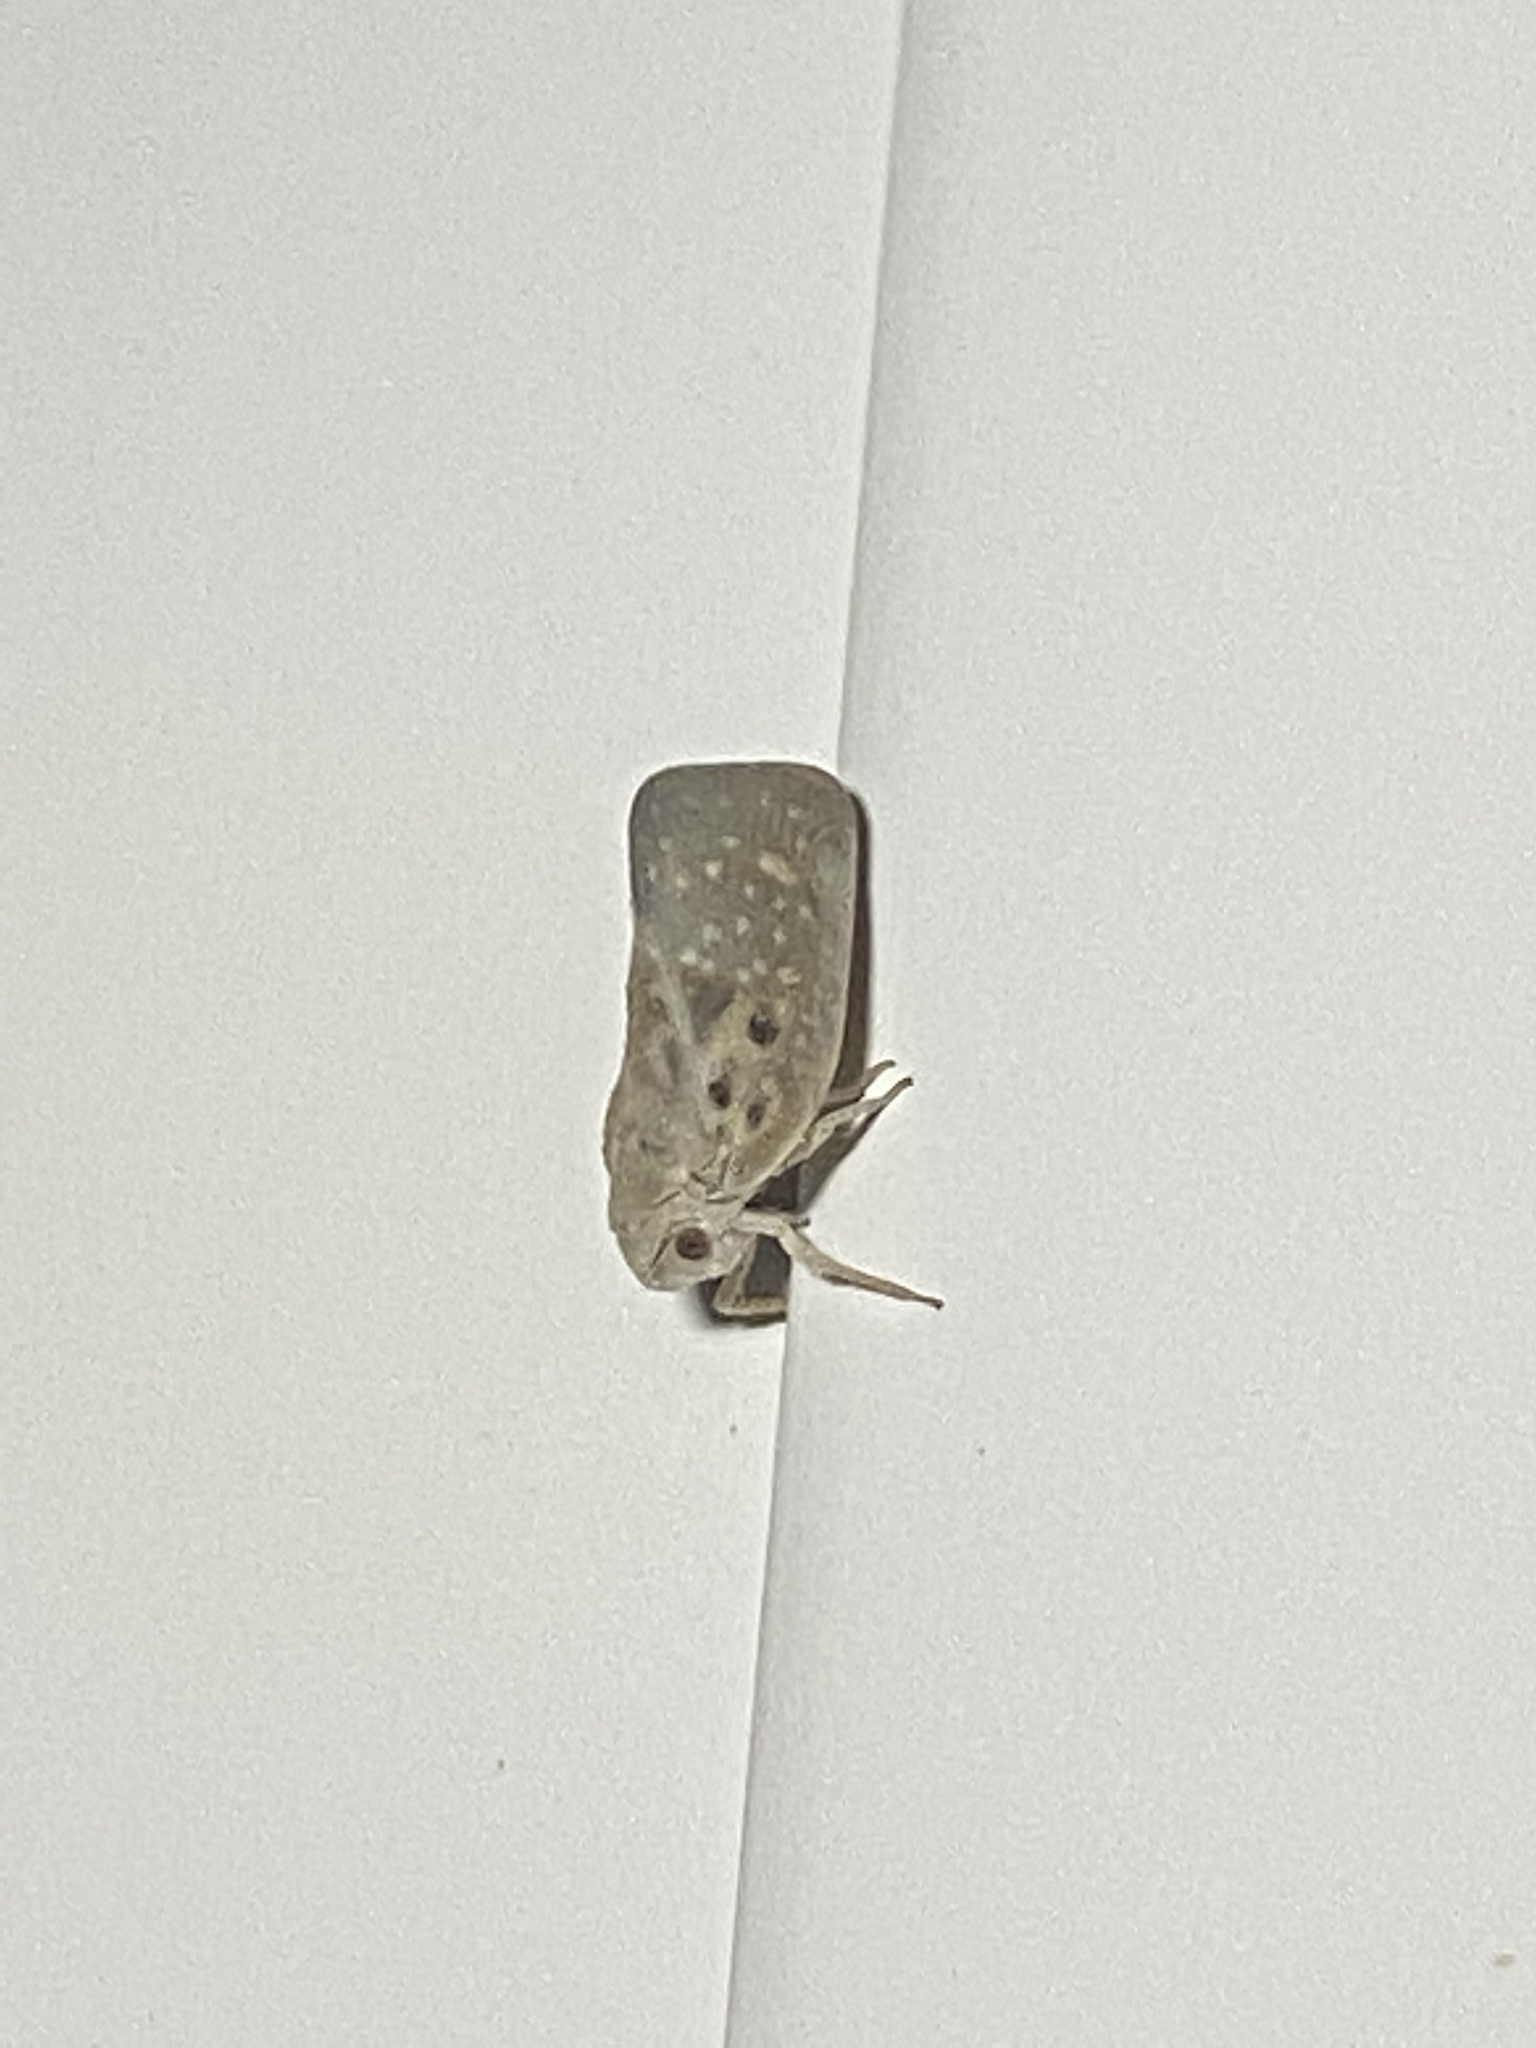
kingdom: Animalia
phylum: Arthropoda
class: Insecta
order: Hemiptera
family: Flatidae
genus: Metcalfa
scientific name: Metcalfa pruinosa
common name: Citrus flatid planthopper
